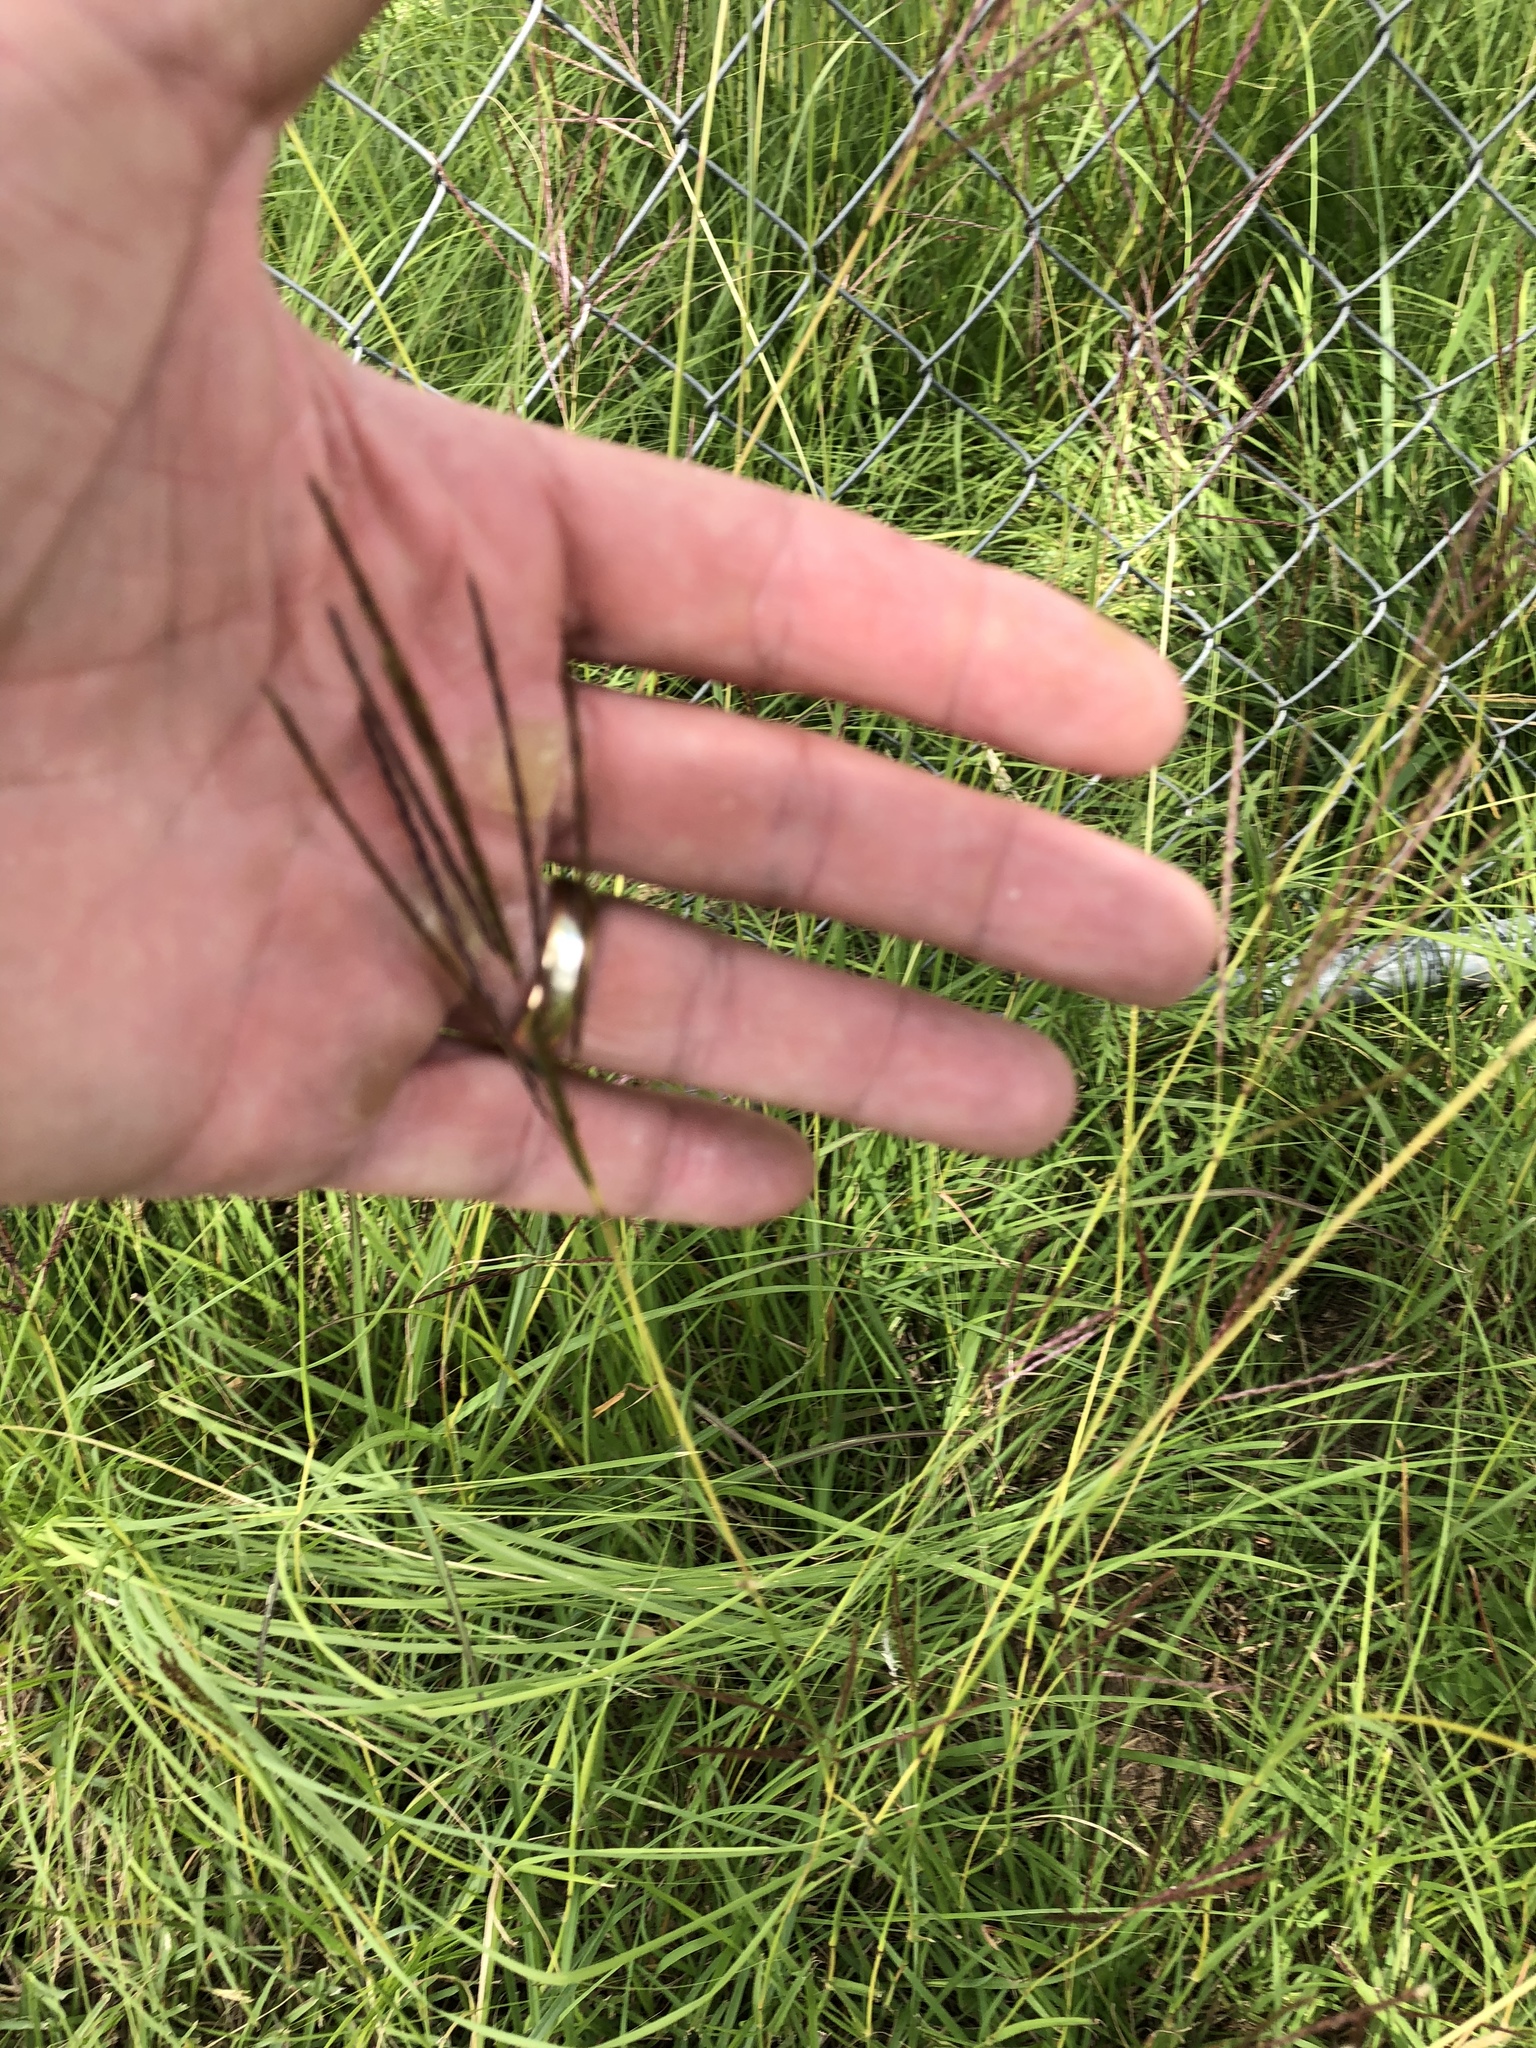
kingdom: Plantae
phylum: Tracheophyta
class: Liliopsida
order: Poales
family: Poaceae
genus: Bothriochloa
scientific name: Bothriochloa ischaemum
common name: Yellow bluestem
